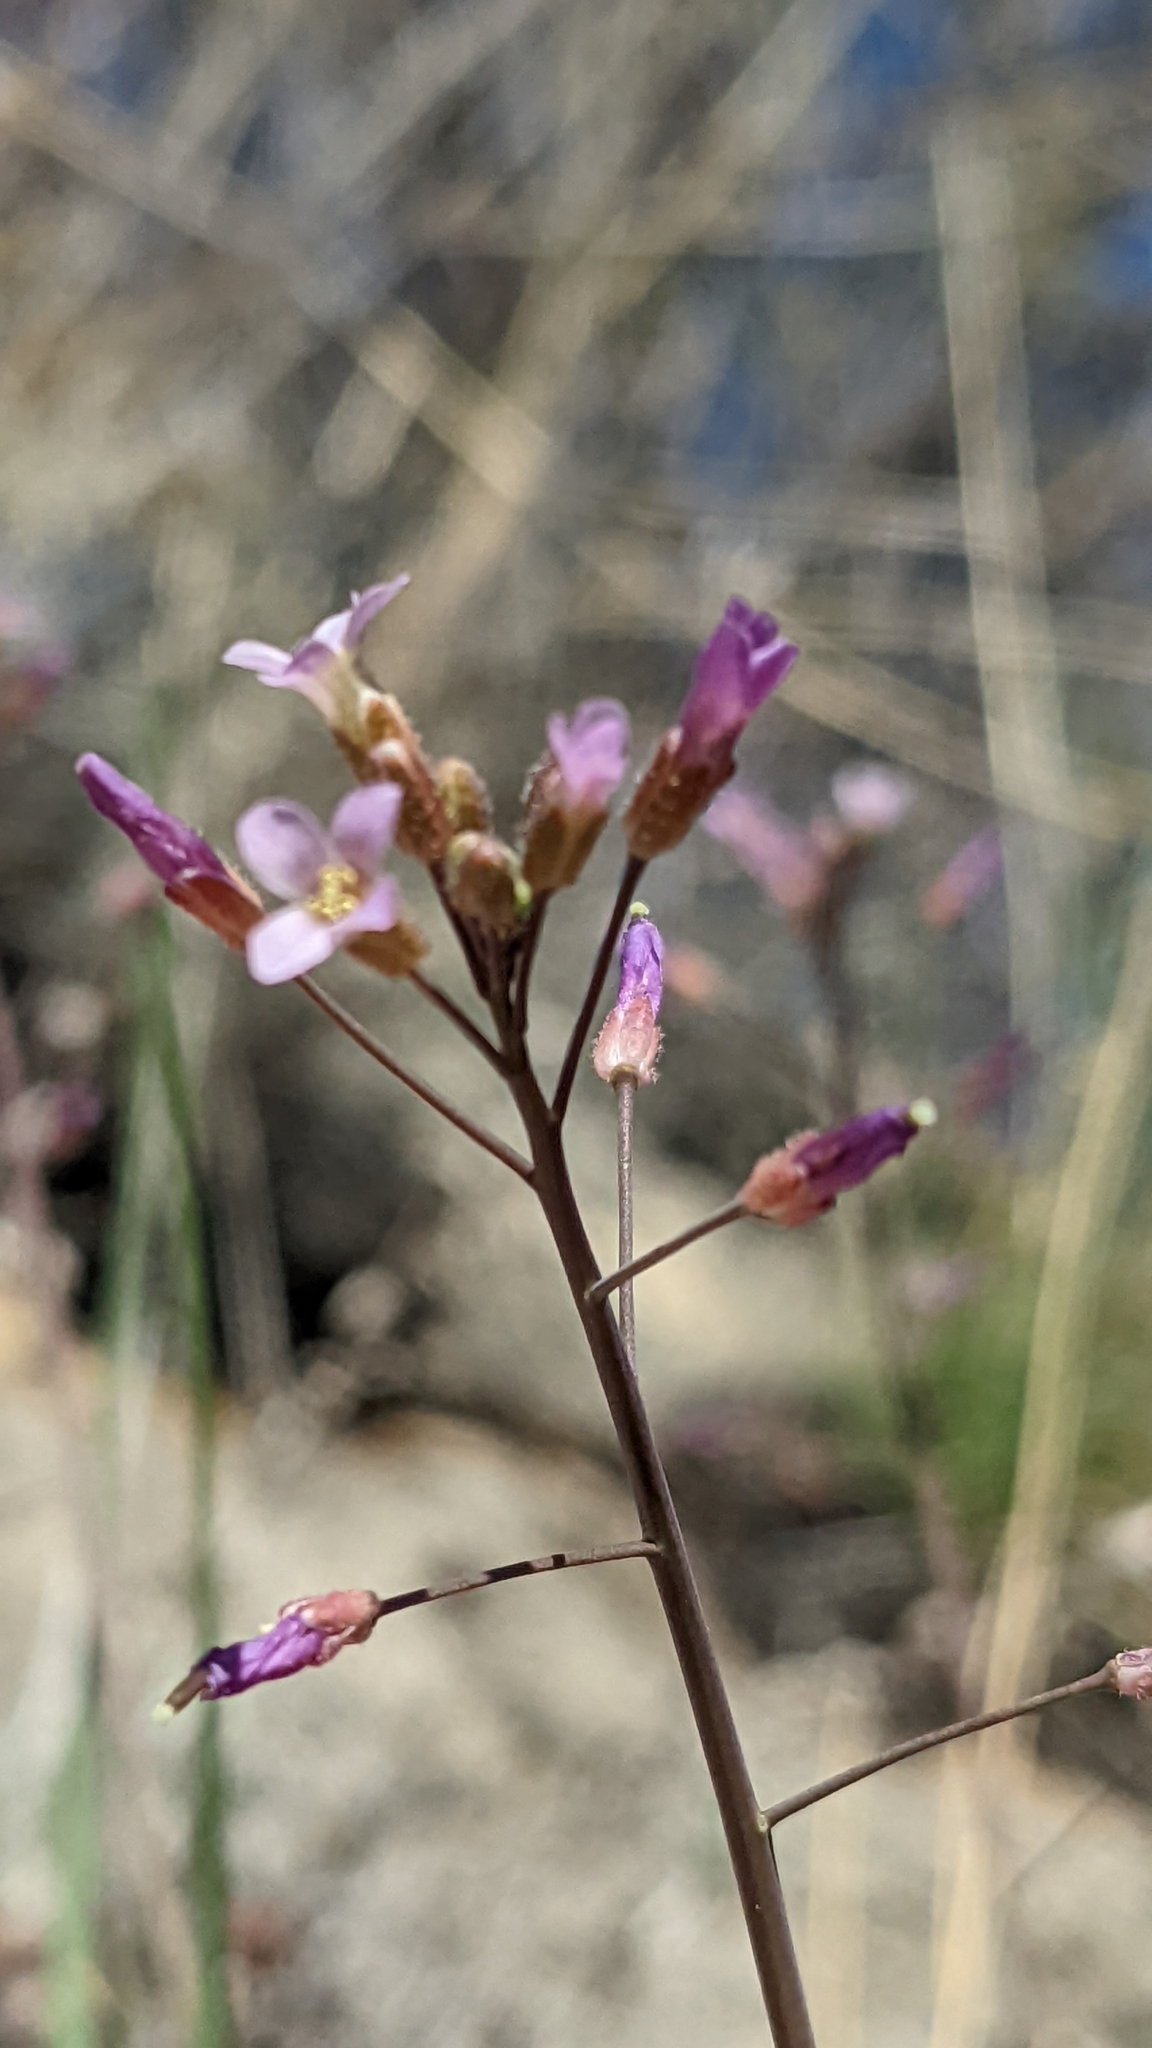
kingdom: Plantae
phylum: Tracheophyta
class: Magnoliopsida
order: Brassicales
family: Brassicaceae
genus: Boechera
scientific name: Boechera perennans
